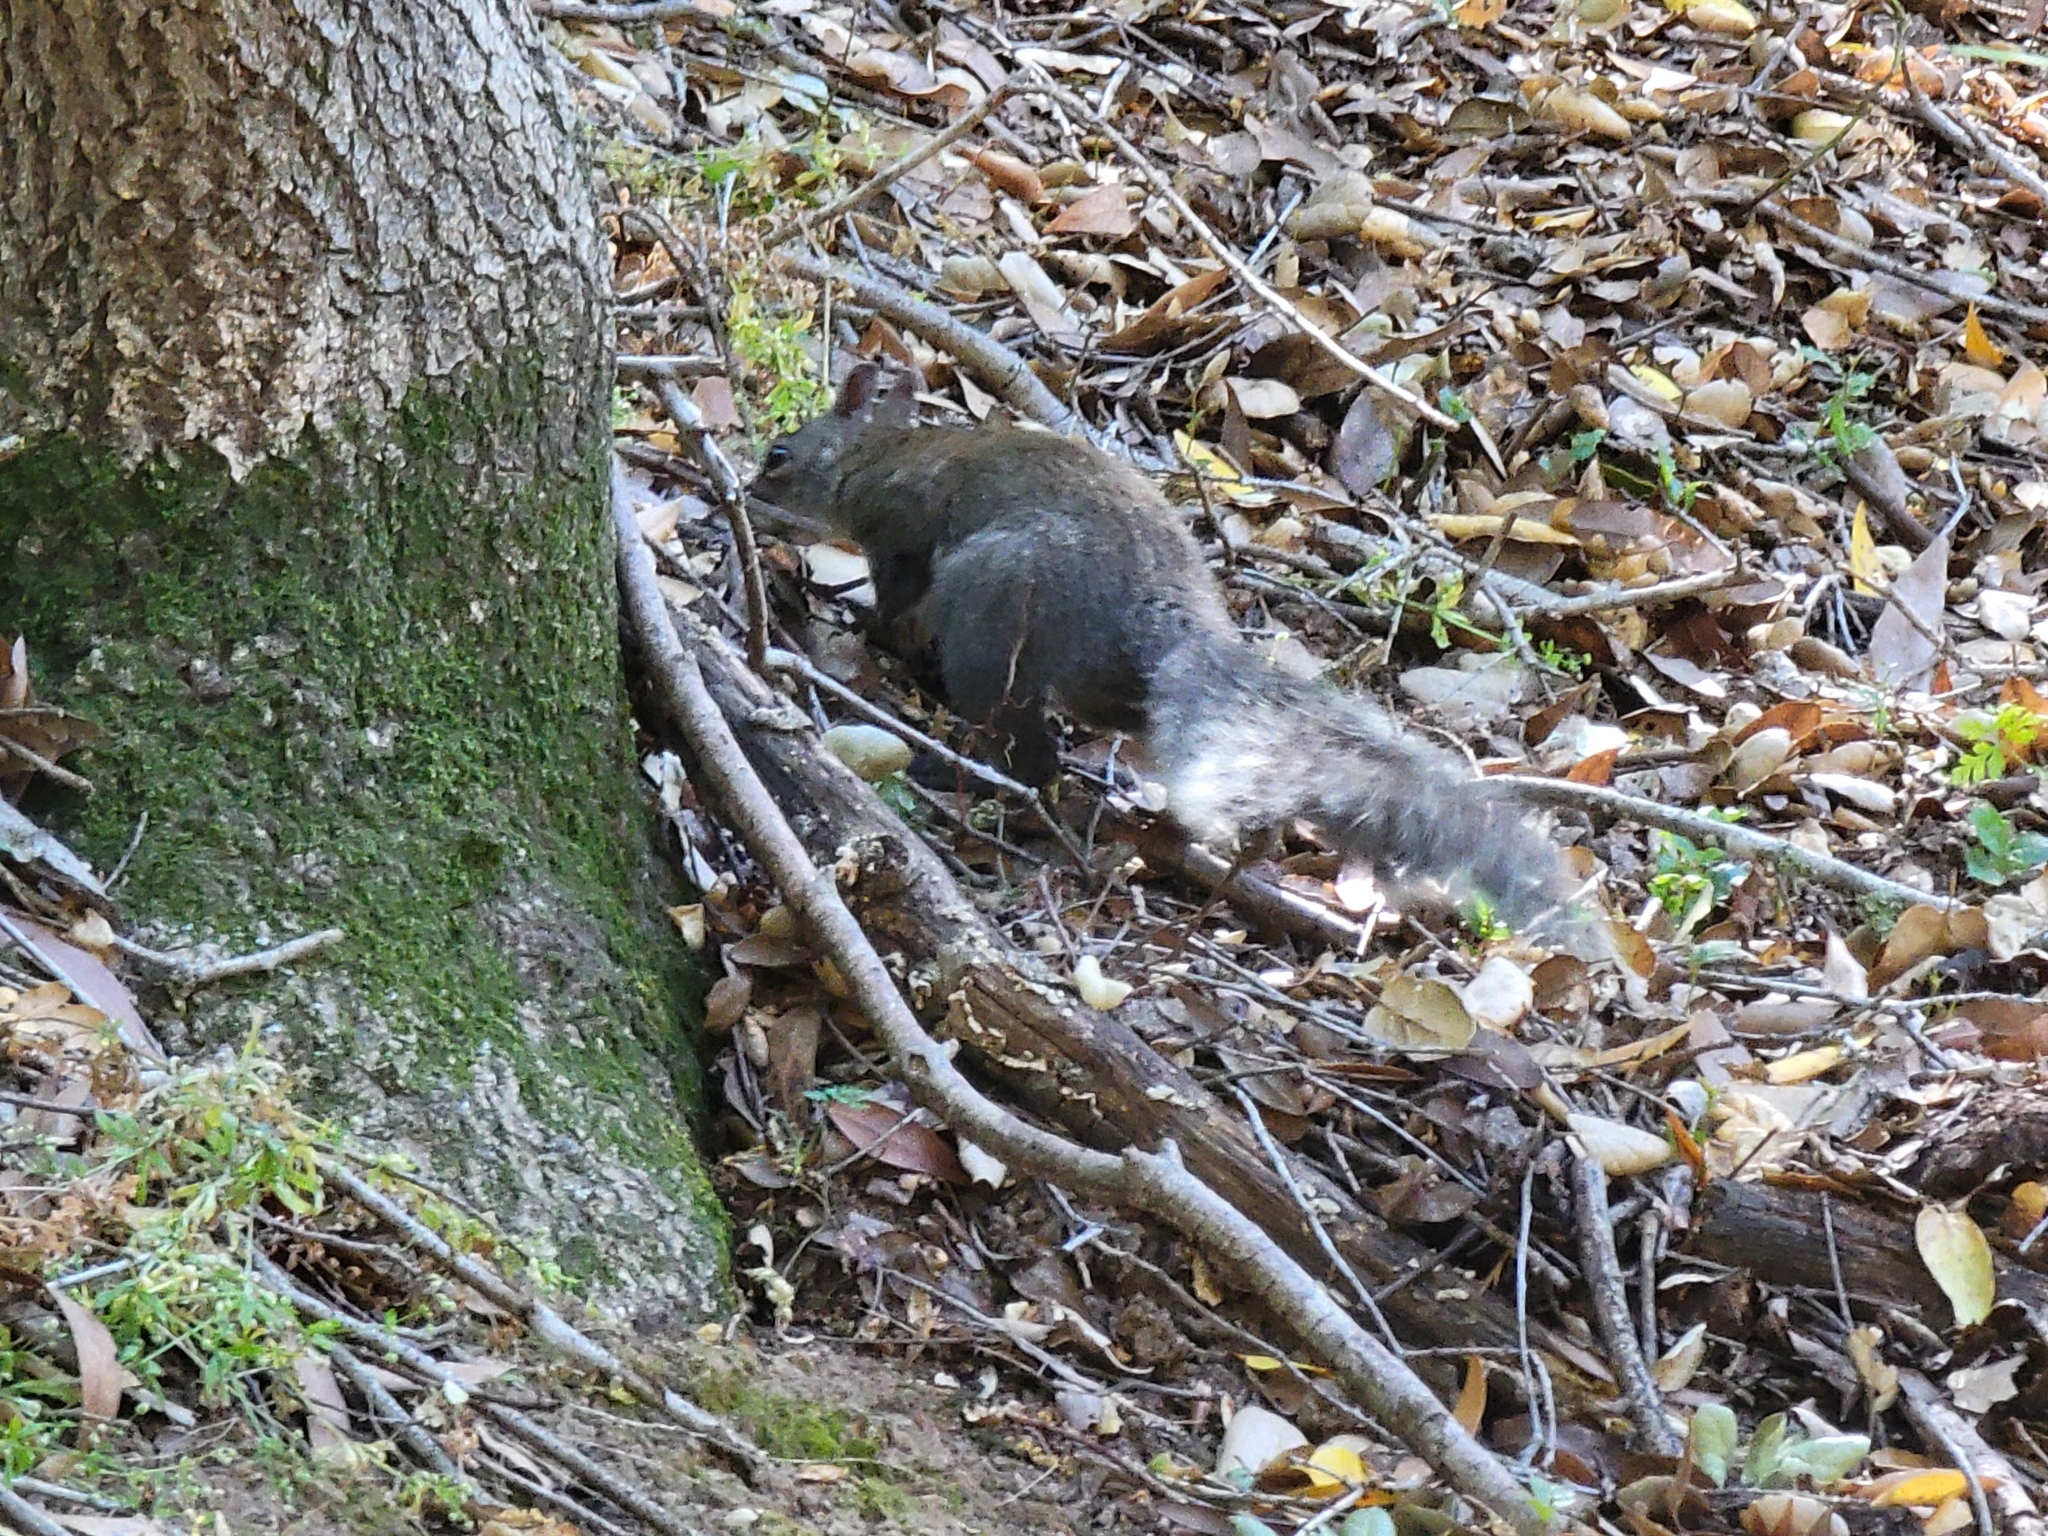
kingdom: Animalia
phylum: Chordata
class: Mammalia
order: Rodentia
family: Sciuridae
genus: Sciurus
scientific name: Sciurus griseus
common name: Western gray squirrel
